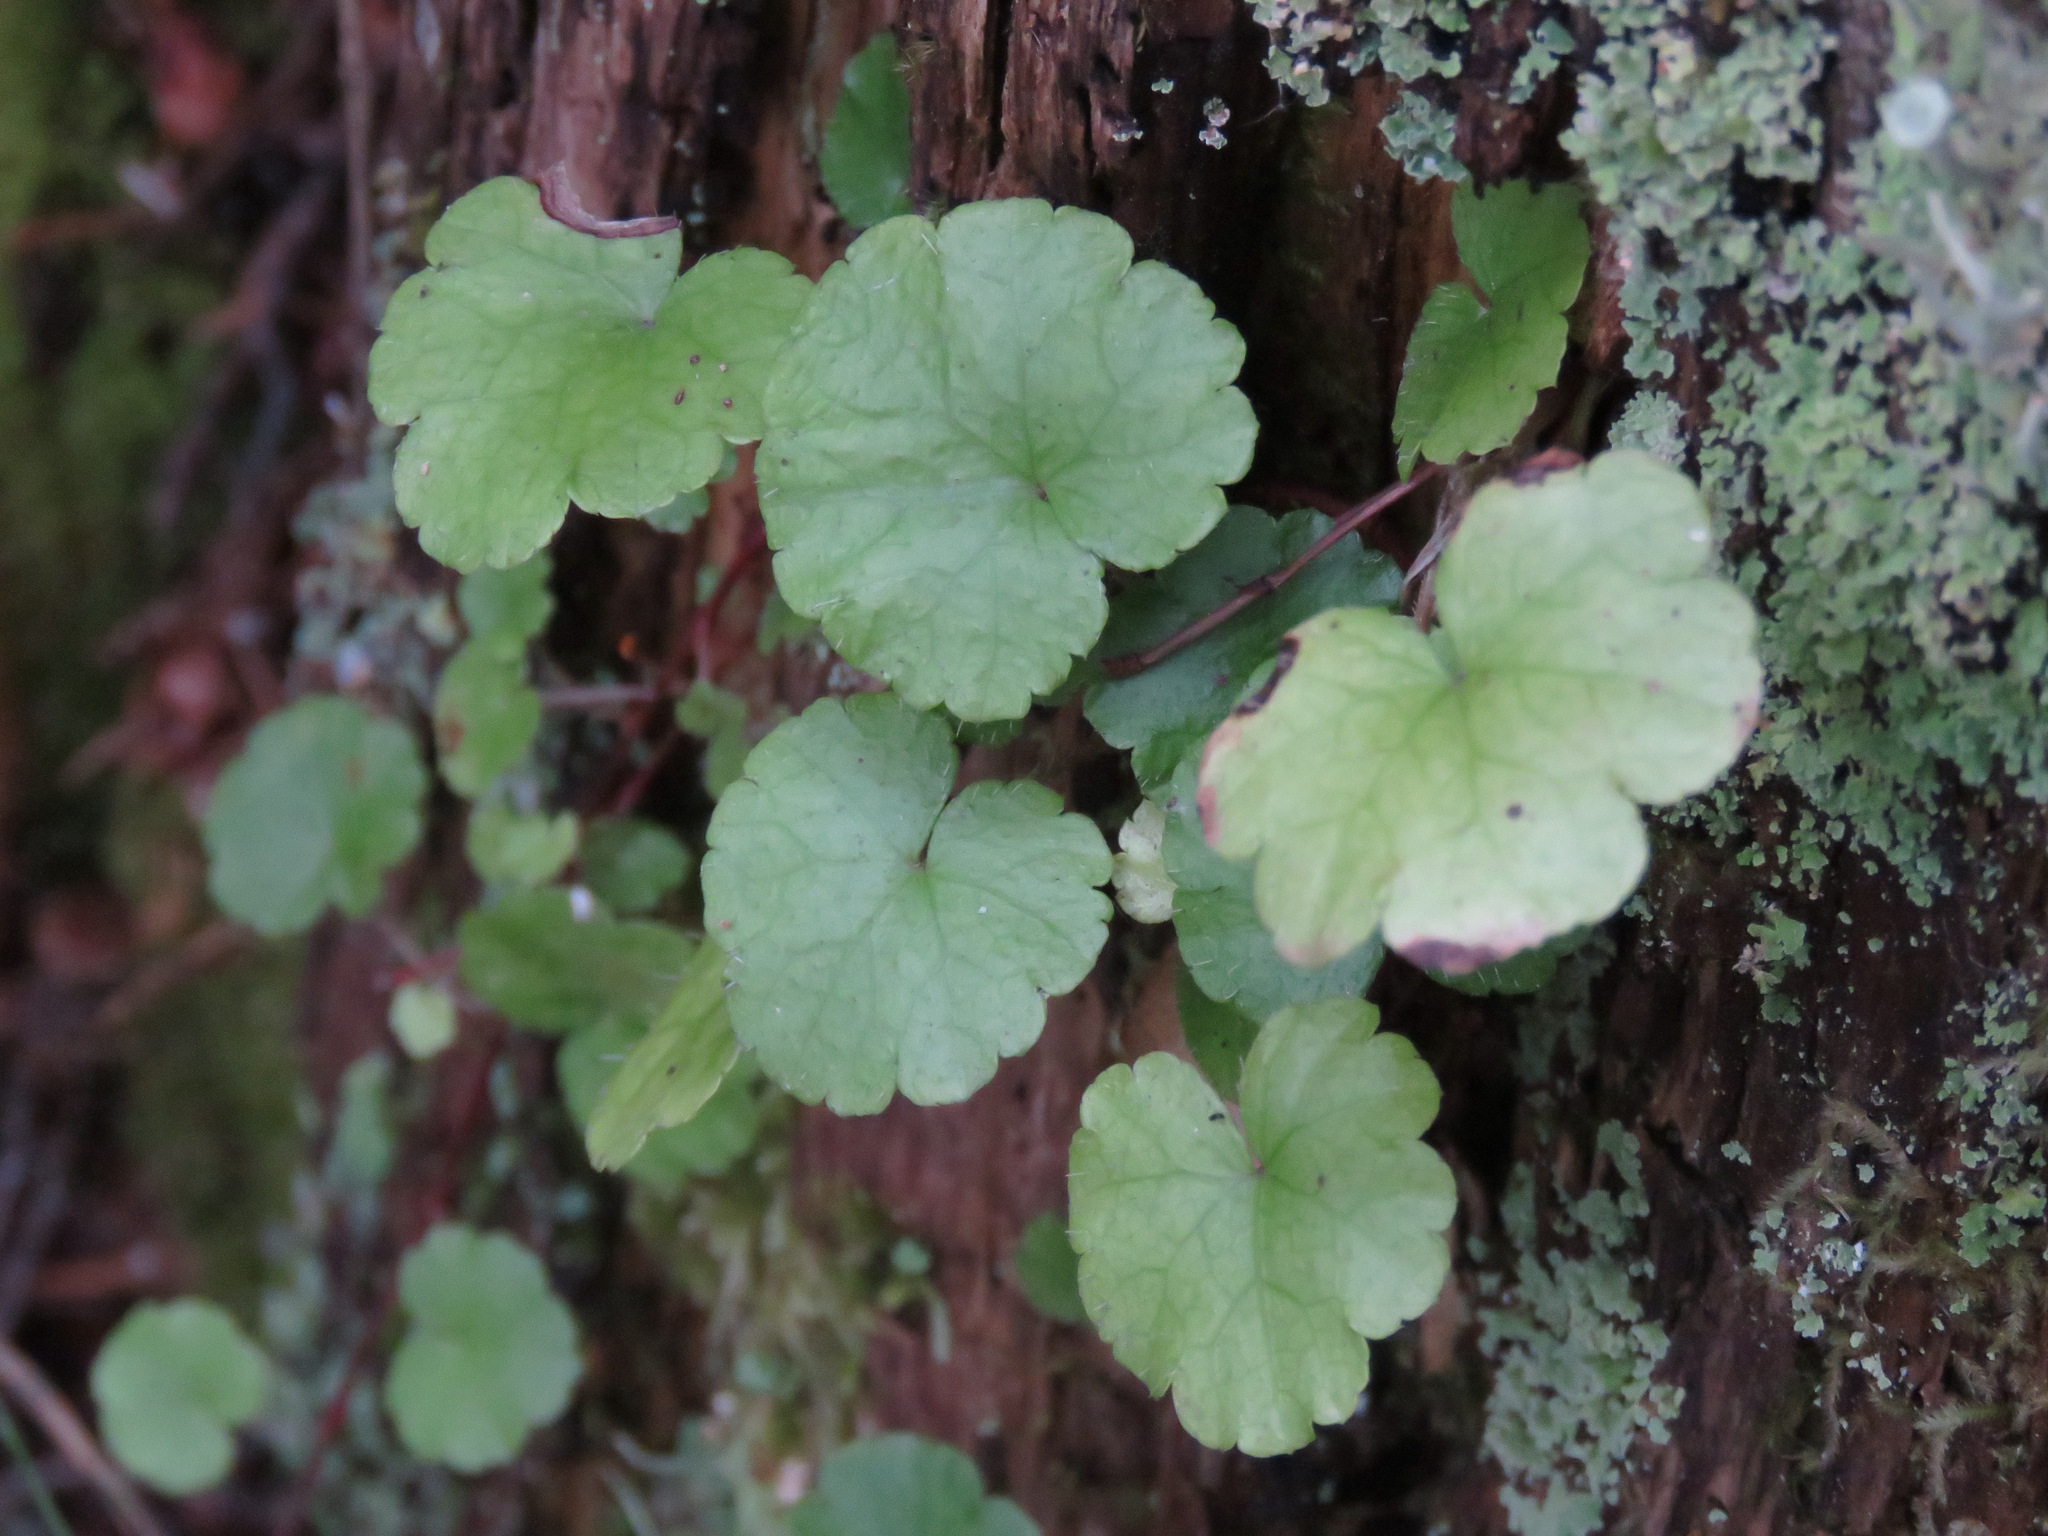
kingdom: Plantae
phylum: Tracheophyta
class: Magnoliopsida
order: Saxifragales
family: Saxifragaceae
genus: Mitella
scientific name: Mitella nuda
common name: Bare-stemmed bishop's-cap
